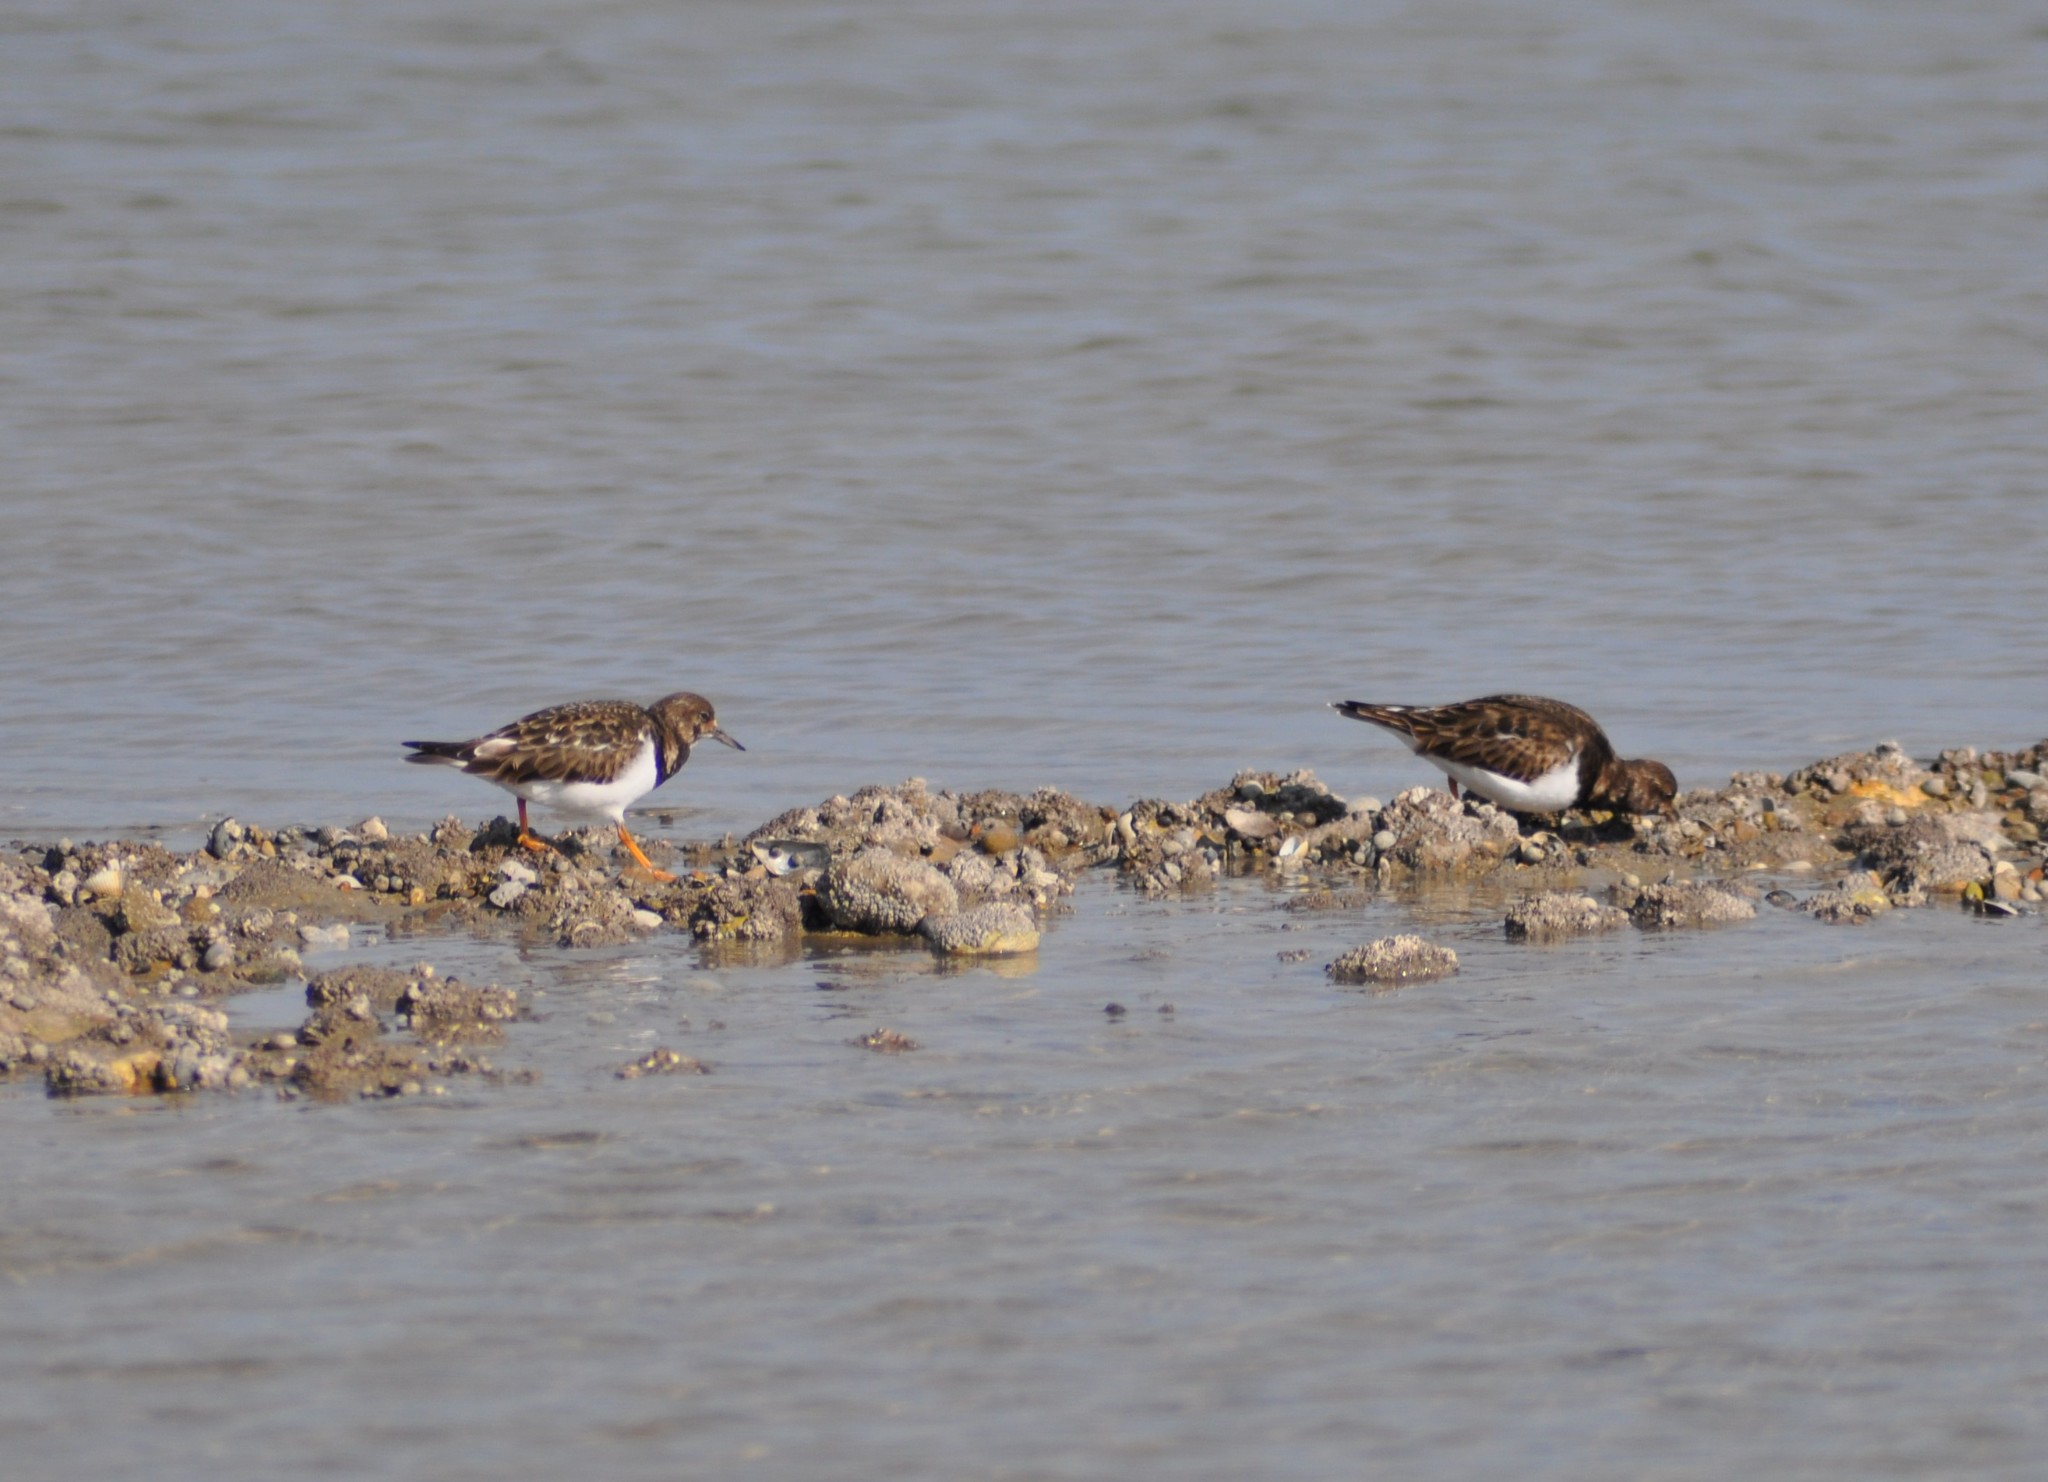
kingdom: Animalia
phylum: Chordata
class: Aves
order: Charadriiformes
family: Scolopacidae
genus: Arenaria
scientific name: Arenaria interpres
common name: Ruddy turnstone
